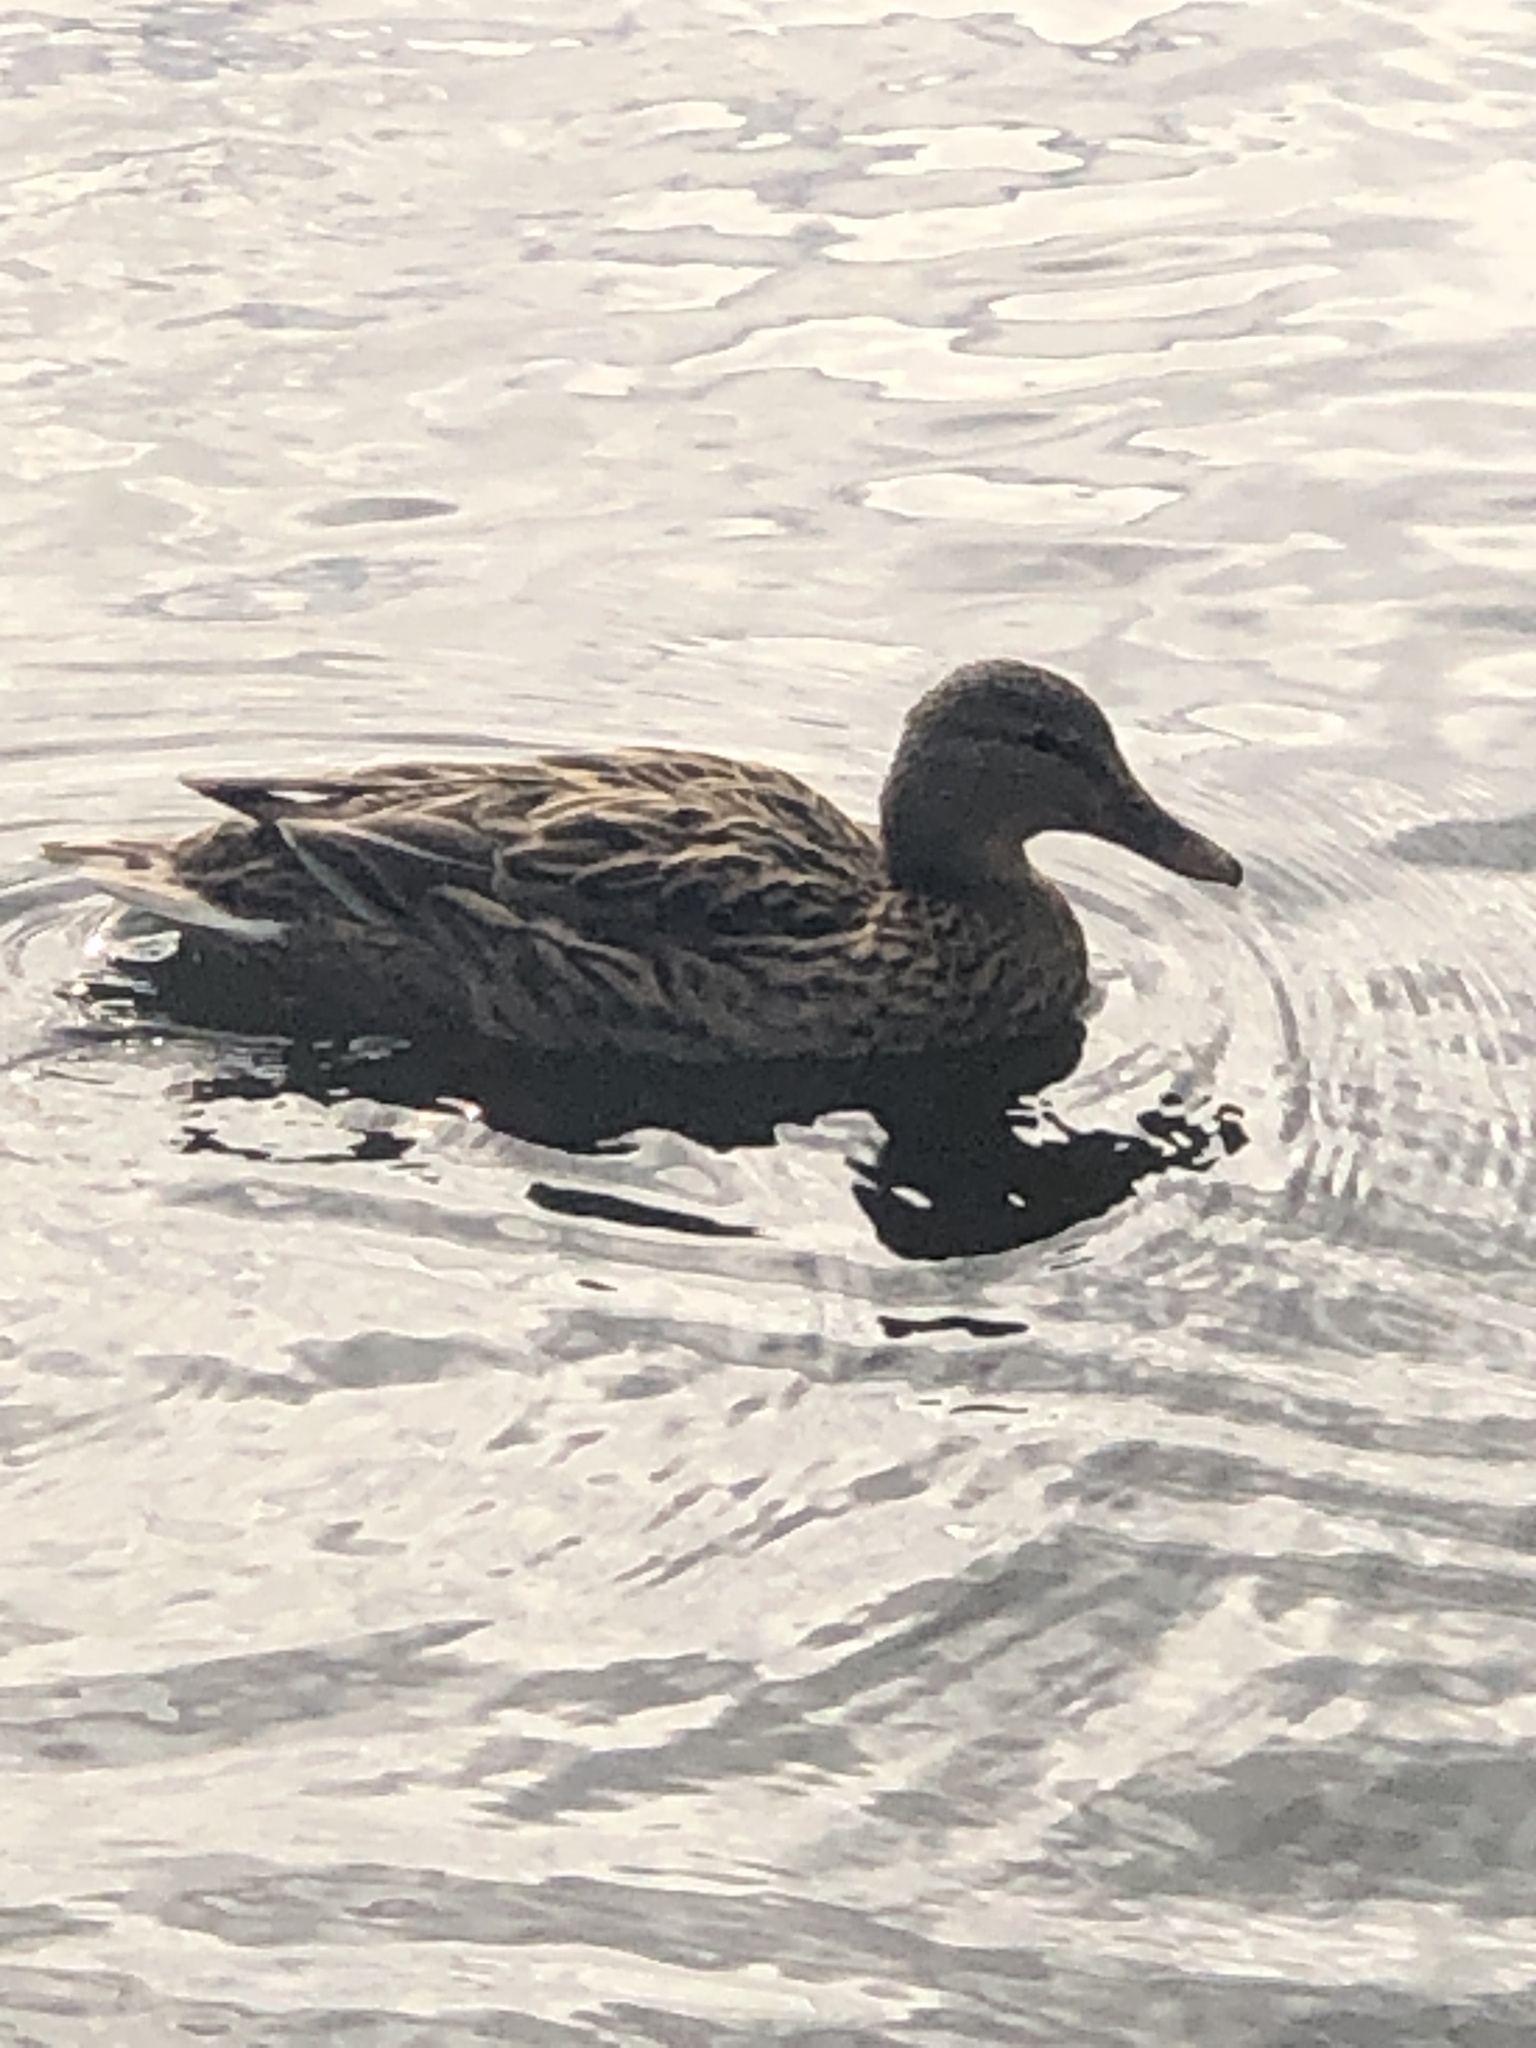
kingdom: Animalia
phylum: Chordata
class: Aves
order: Anseriformes
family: Anatidae
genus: Anas
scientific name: Anas platyrhynchos
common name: Mallard
